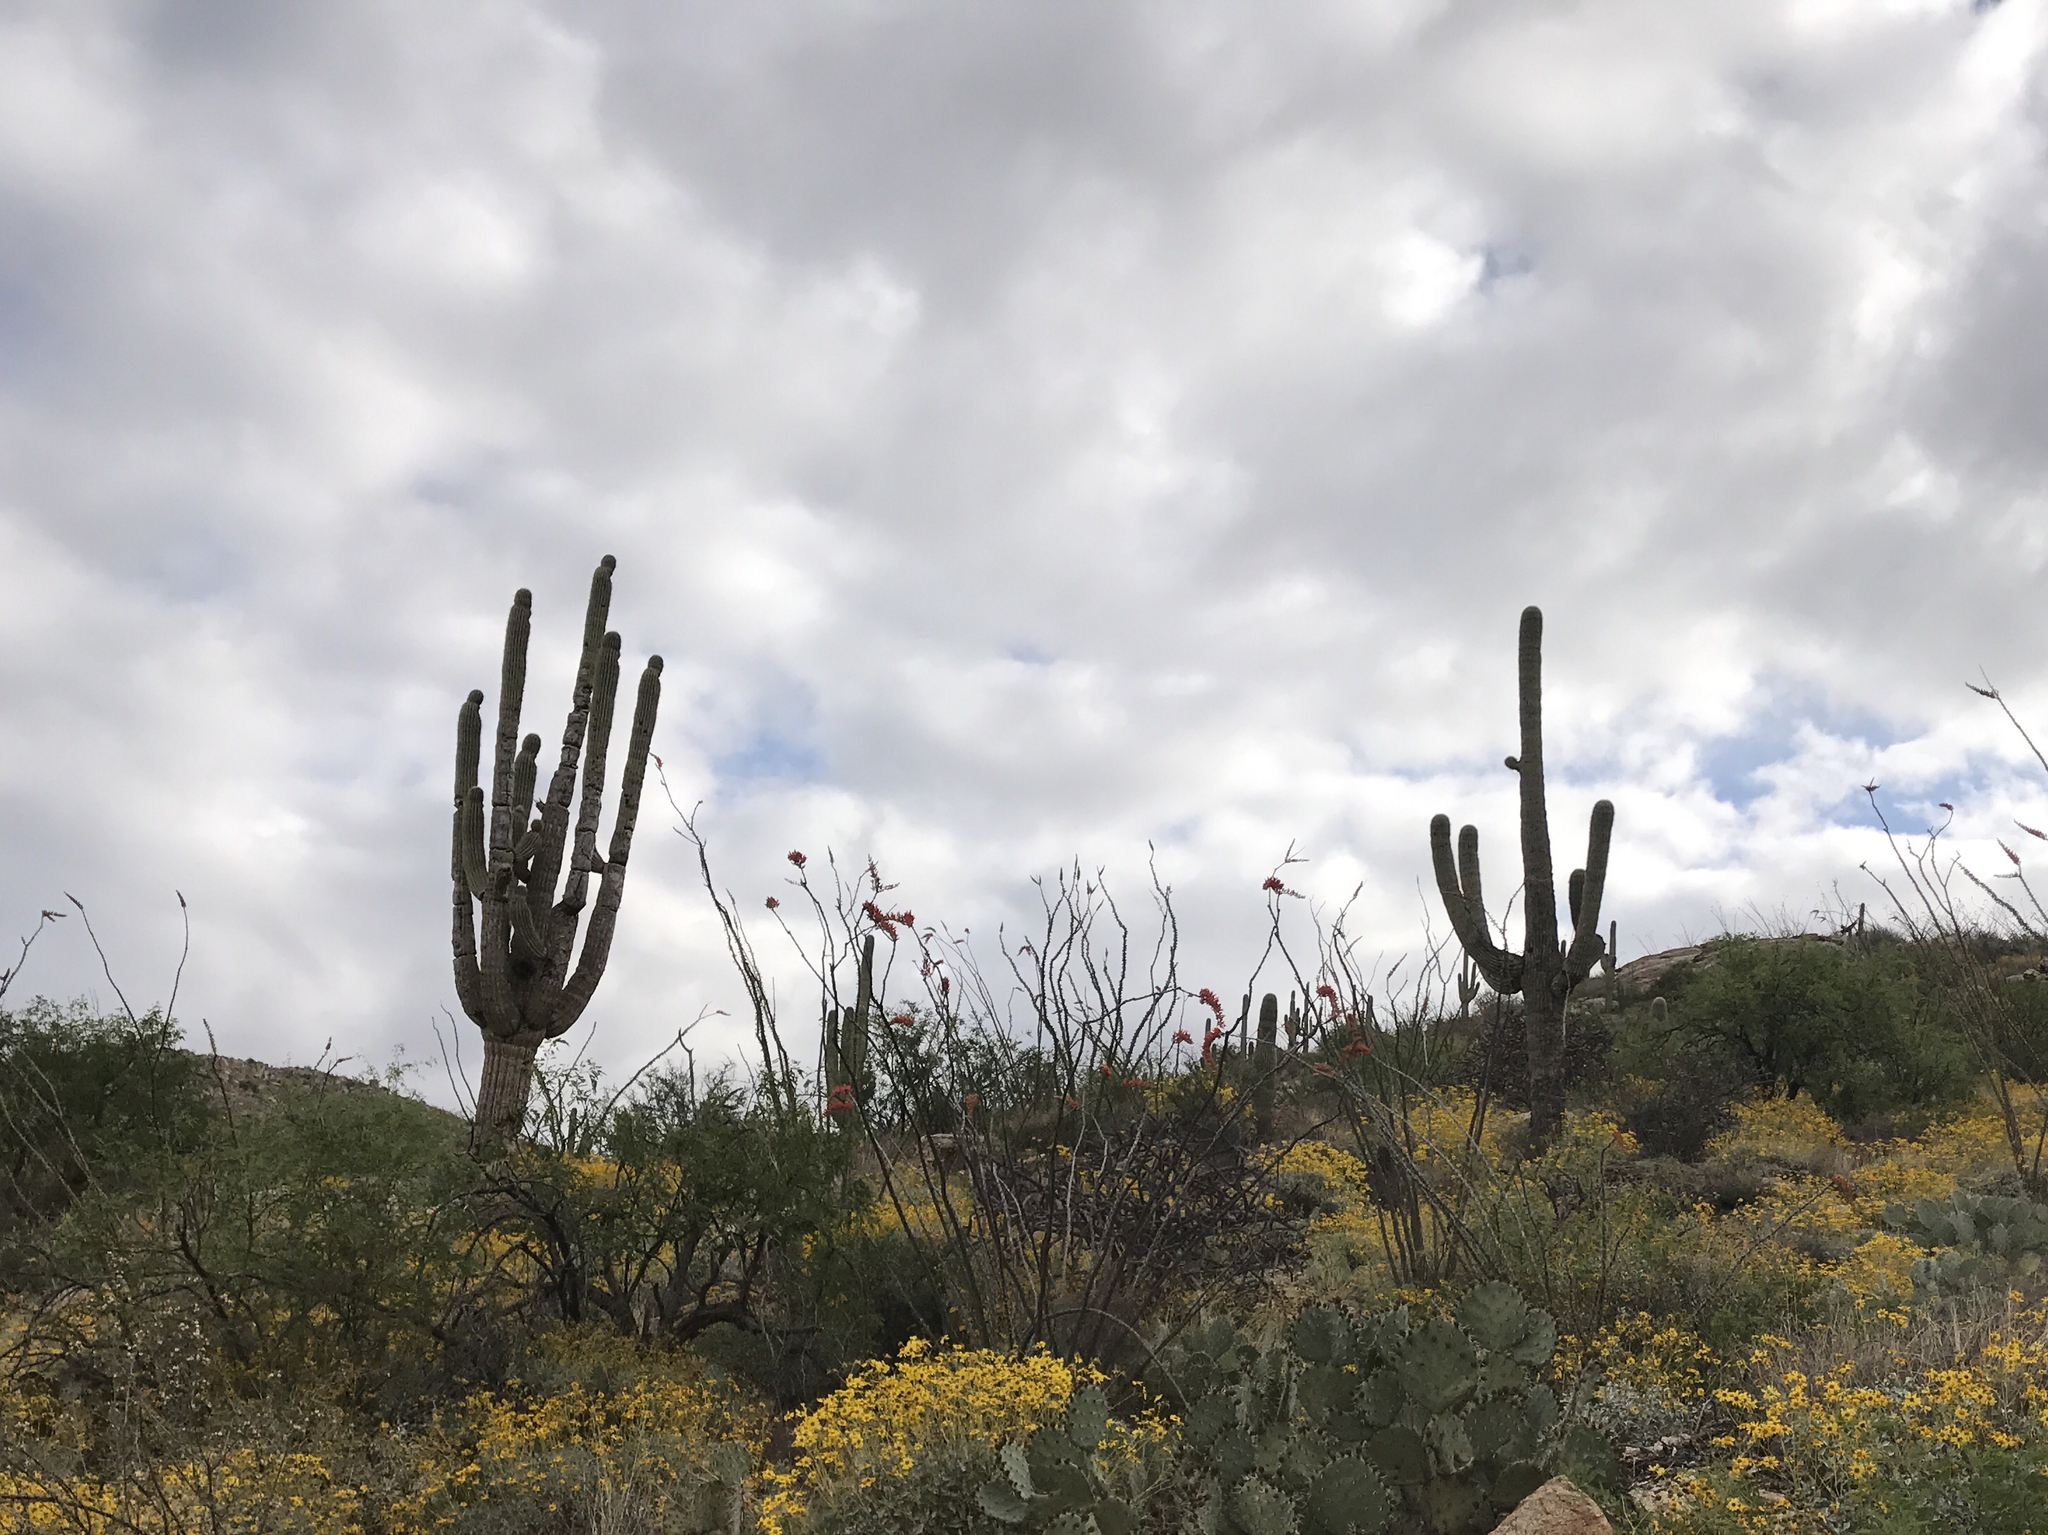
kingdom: Plantae
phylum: Tracheophyta
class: Magnoliopsida
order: Caryophyllales
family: Cactaceae
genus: Carnegiea
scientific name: Carnegiea gigantea
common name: Saguaro
